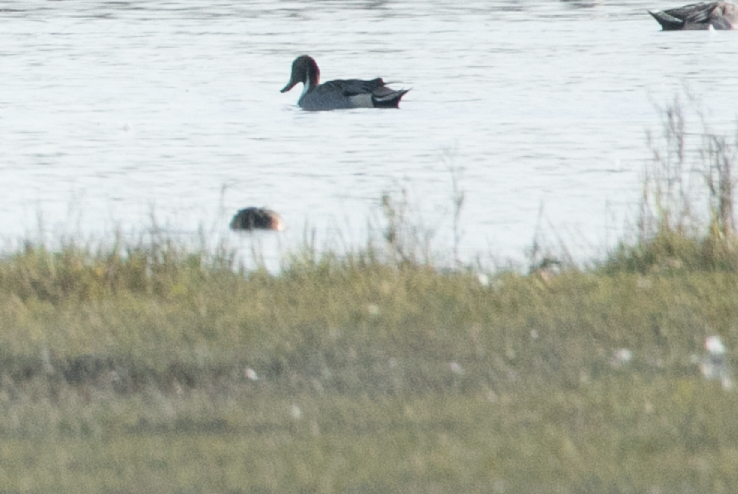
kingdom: Animalia
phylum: Chordata
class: Aves
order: Anseriformes
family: Anatidae
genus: Anas
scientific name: Anas acuta
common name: Northern pintail
